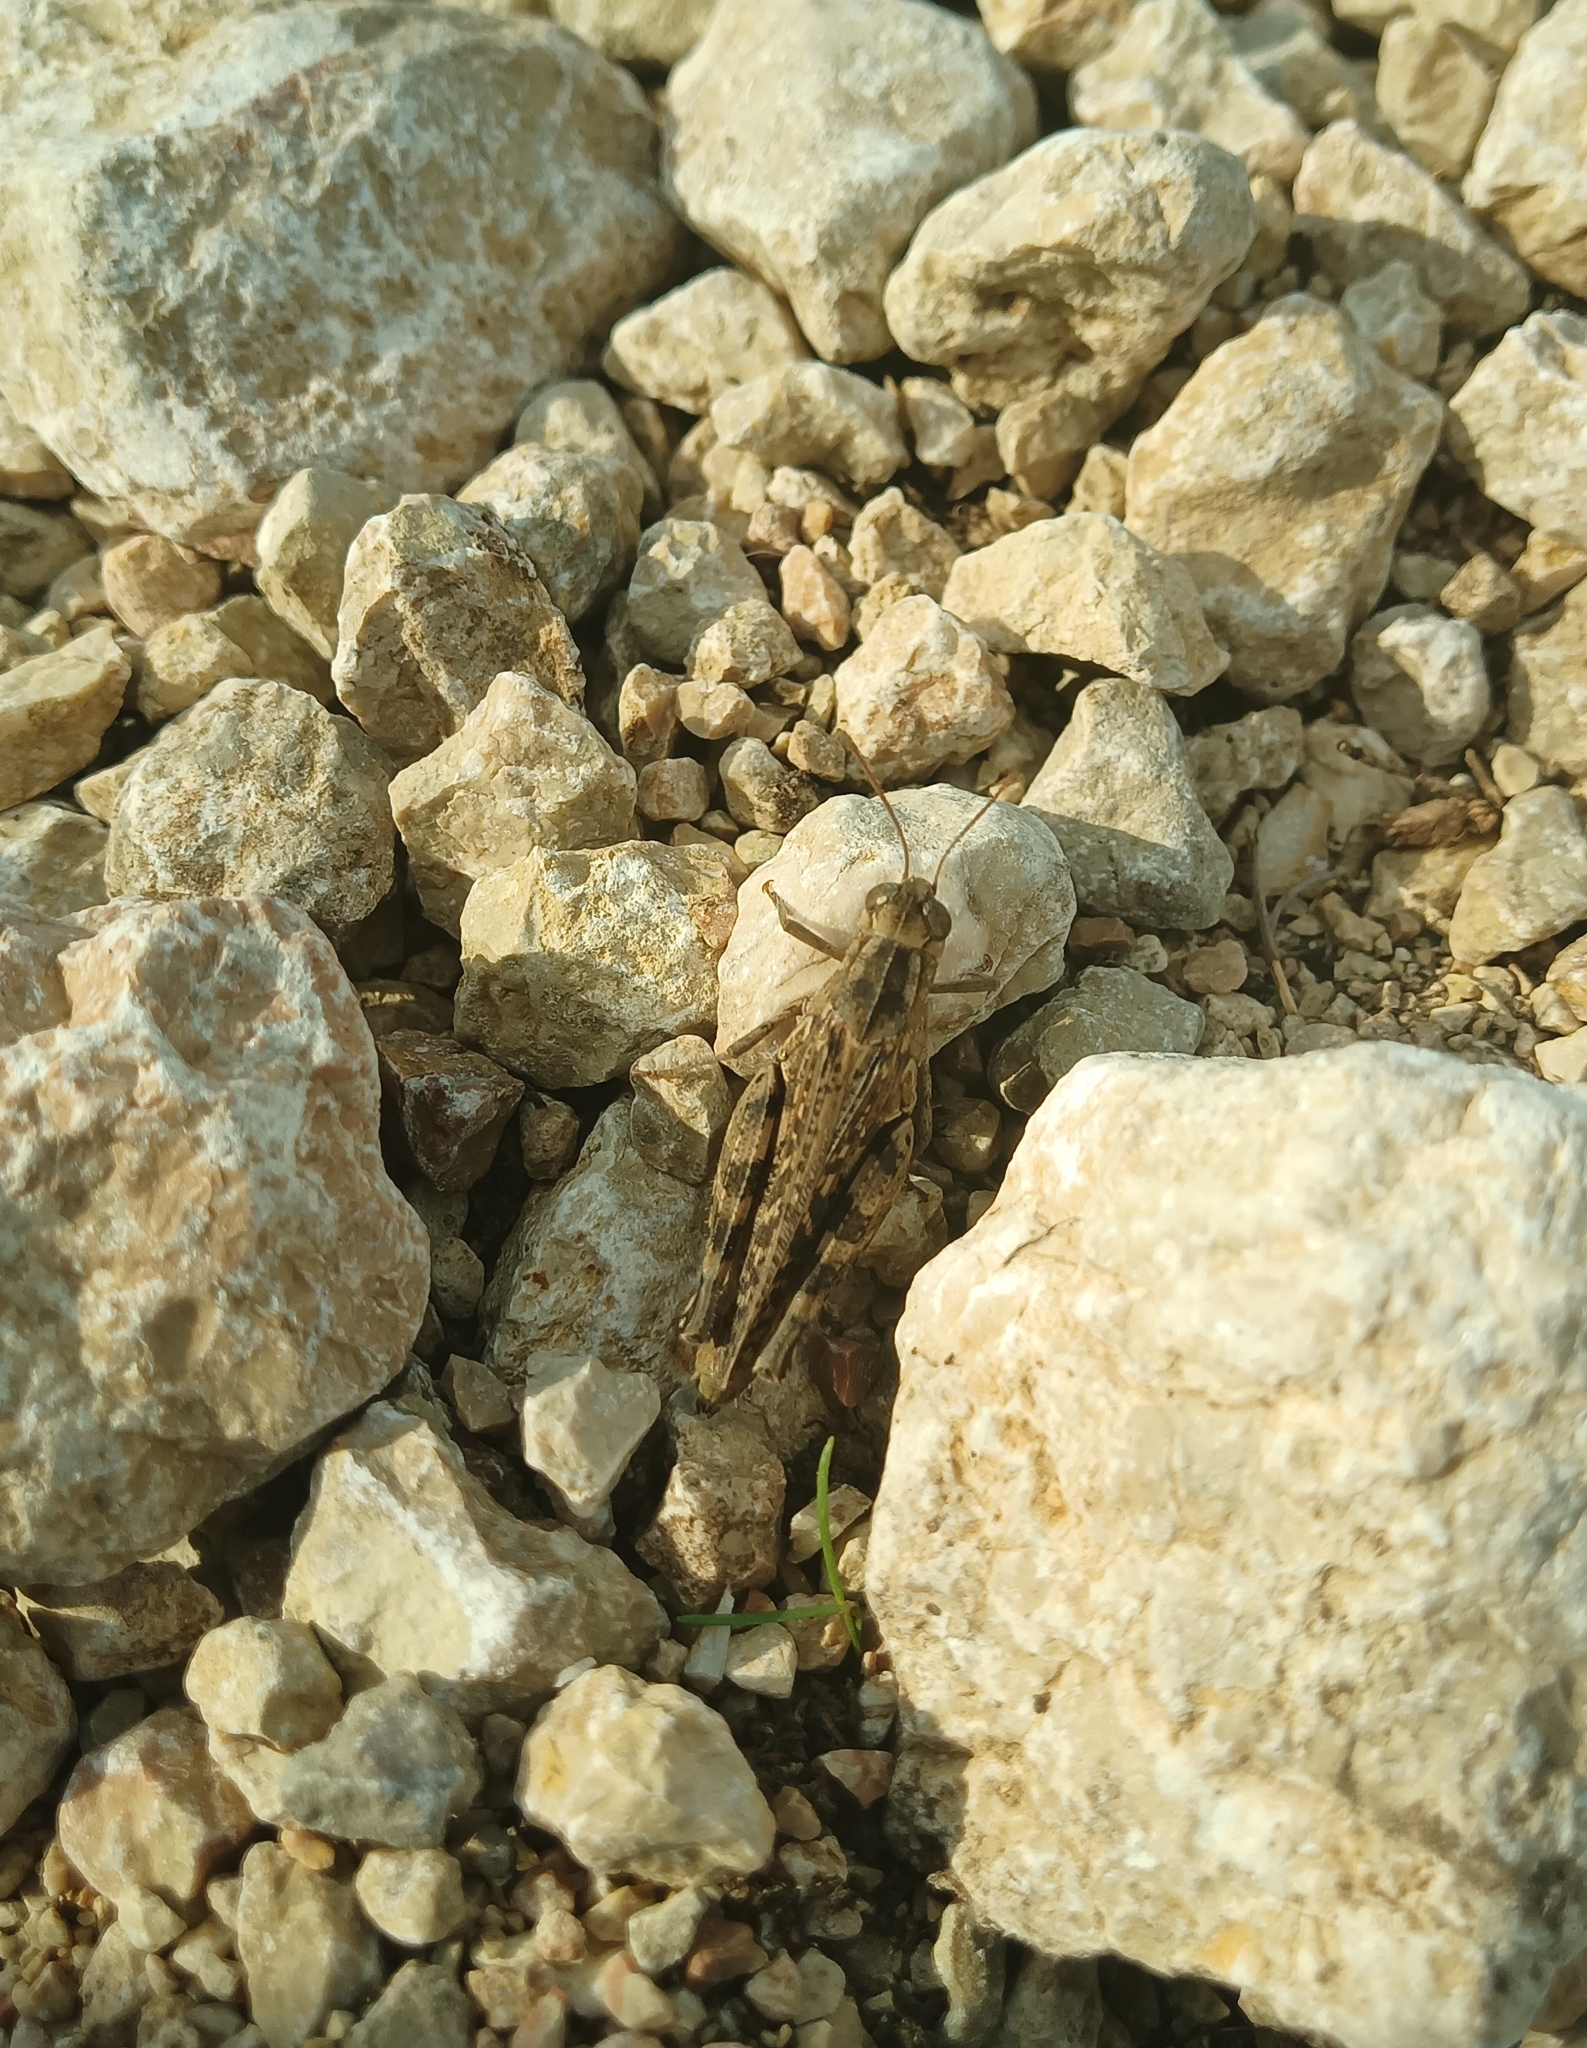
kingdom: Animalia
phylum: Arthropoda
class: Insecta
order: Orthoptera
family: Acrididae
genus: Calliptamus
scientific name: Calliptamus italicus
